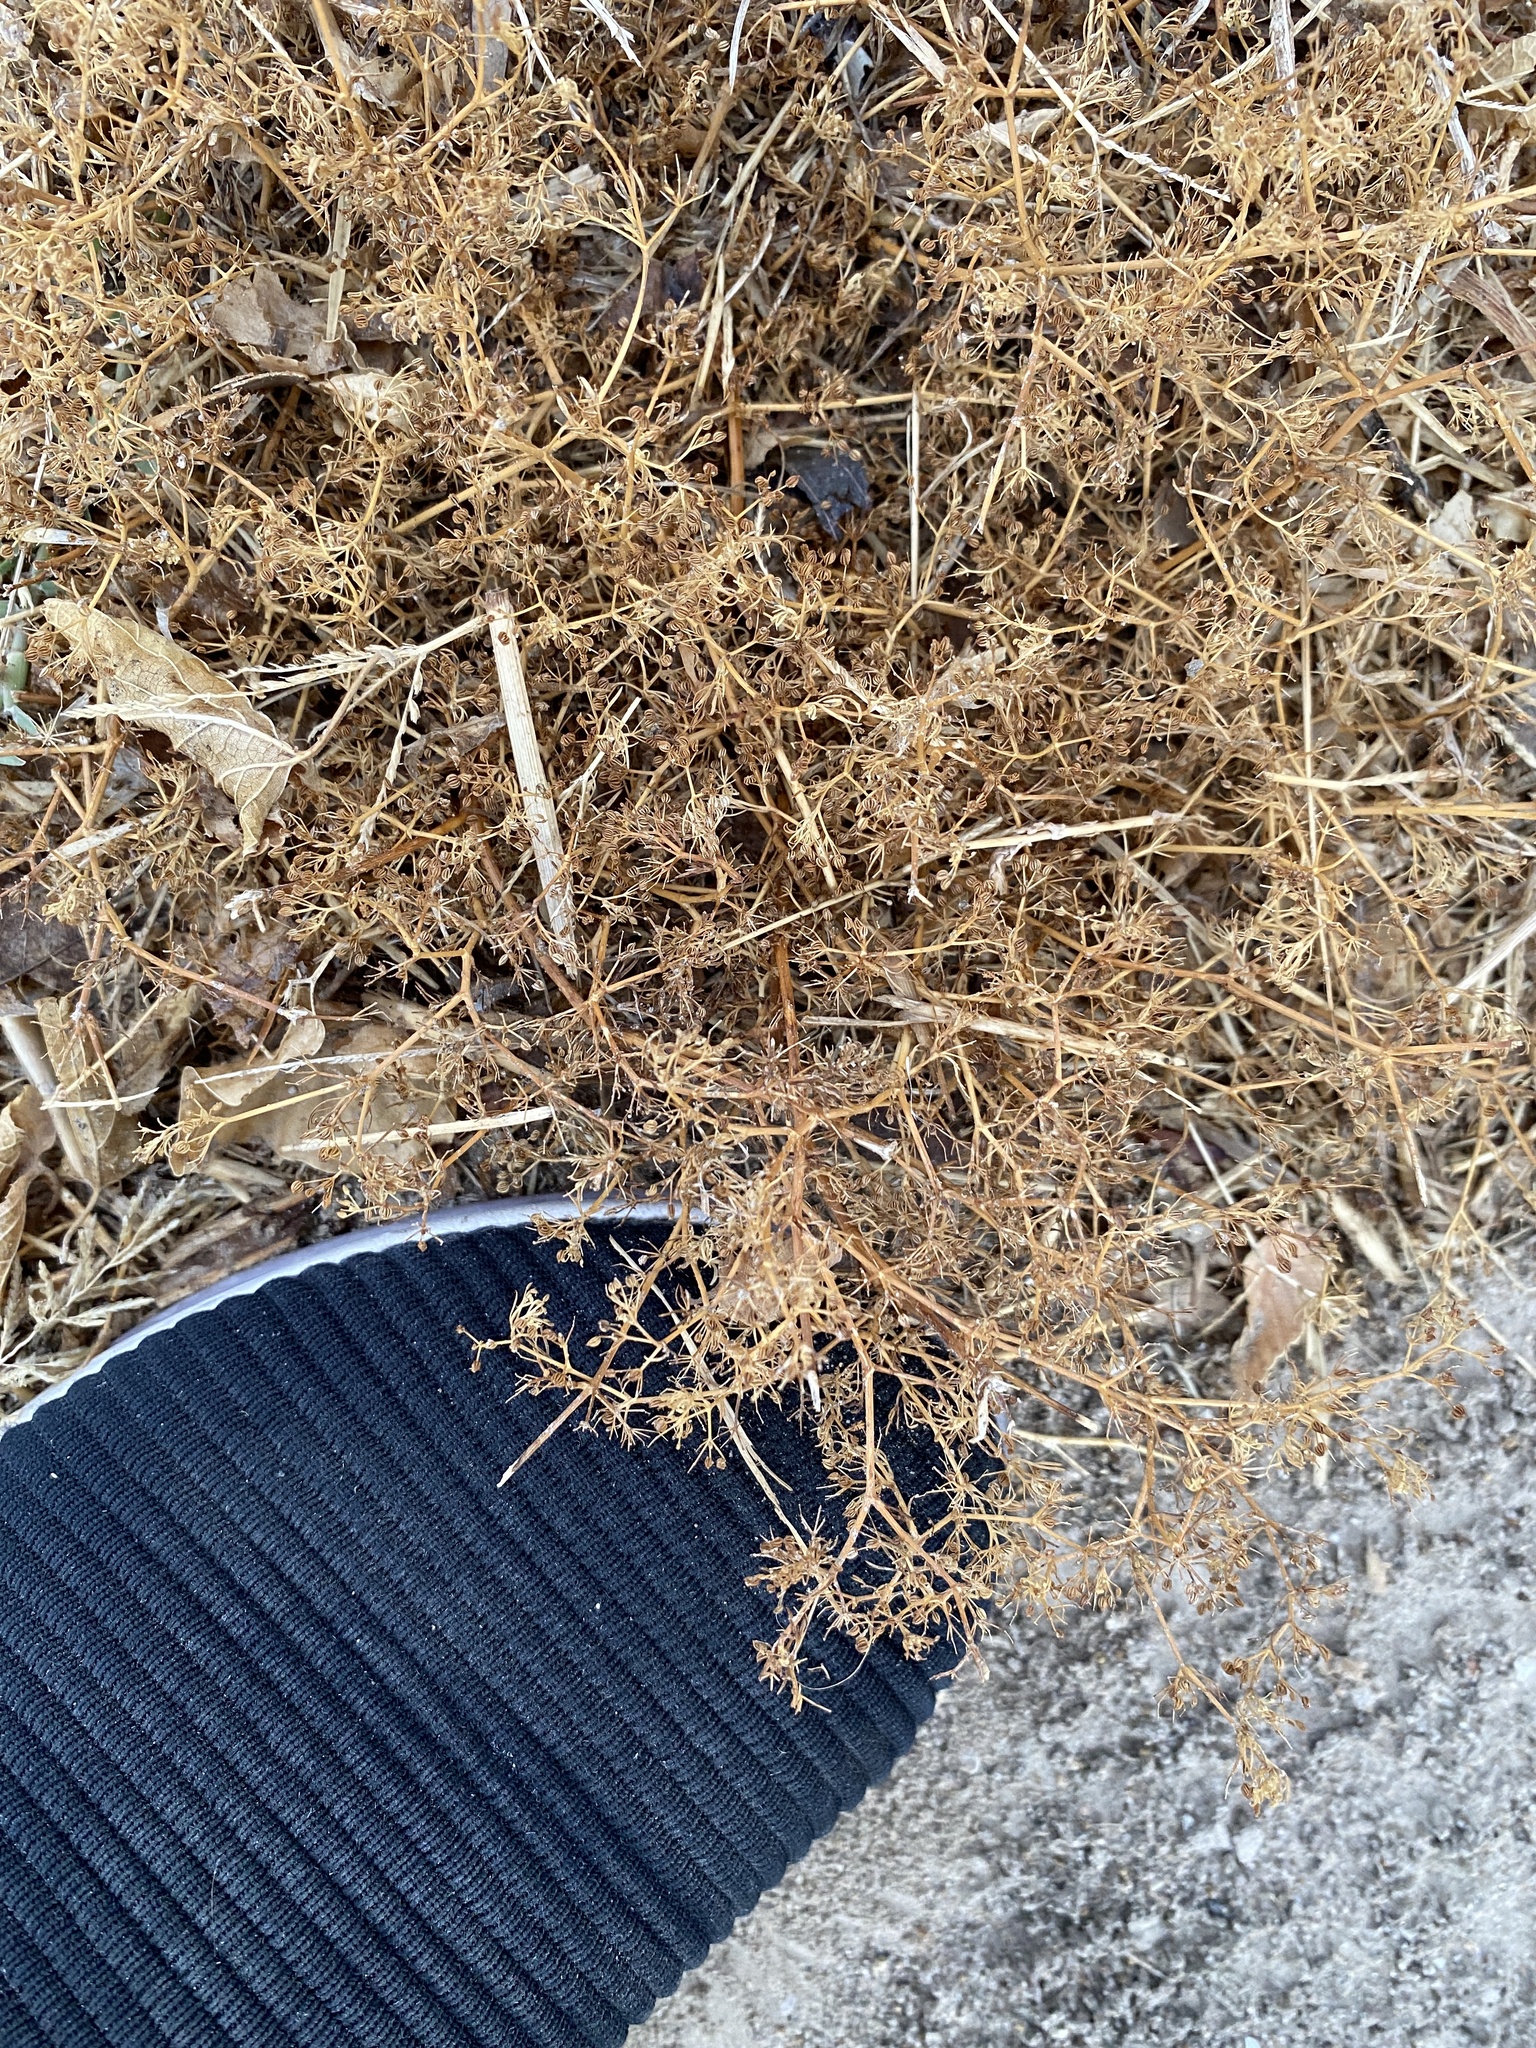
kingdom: Plantae
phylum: Tracheophyta
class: Magnoliopsida
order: Apiales
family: Apiaceae
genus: Cyclospermum
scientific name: Cyclospermum leptophyllum
